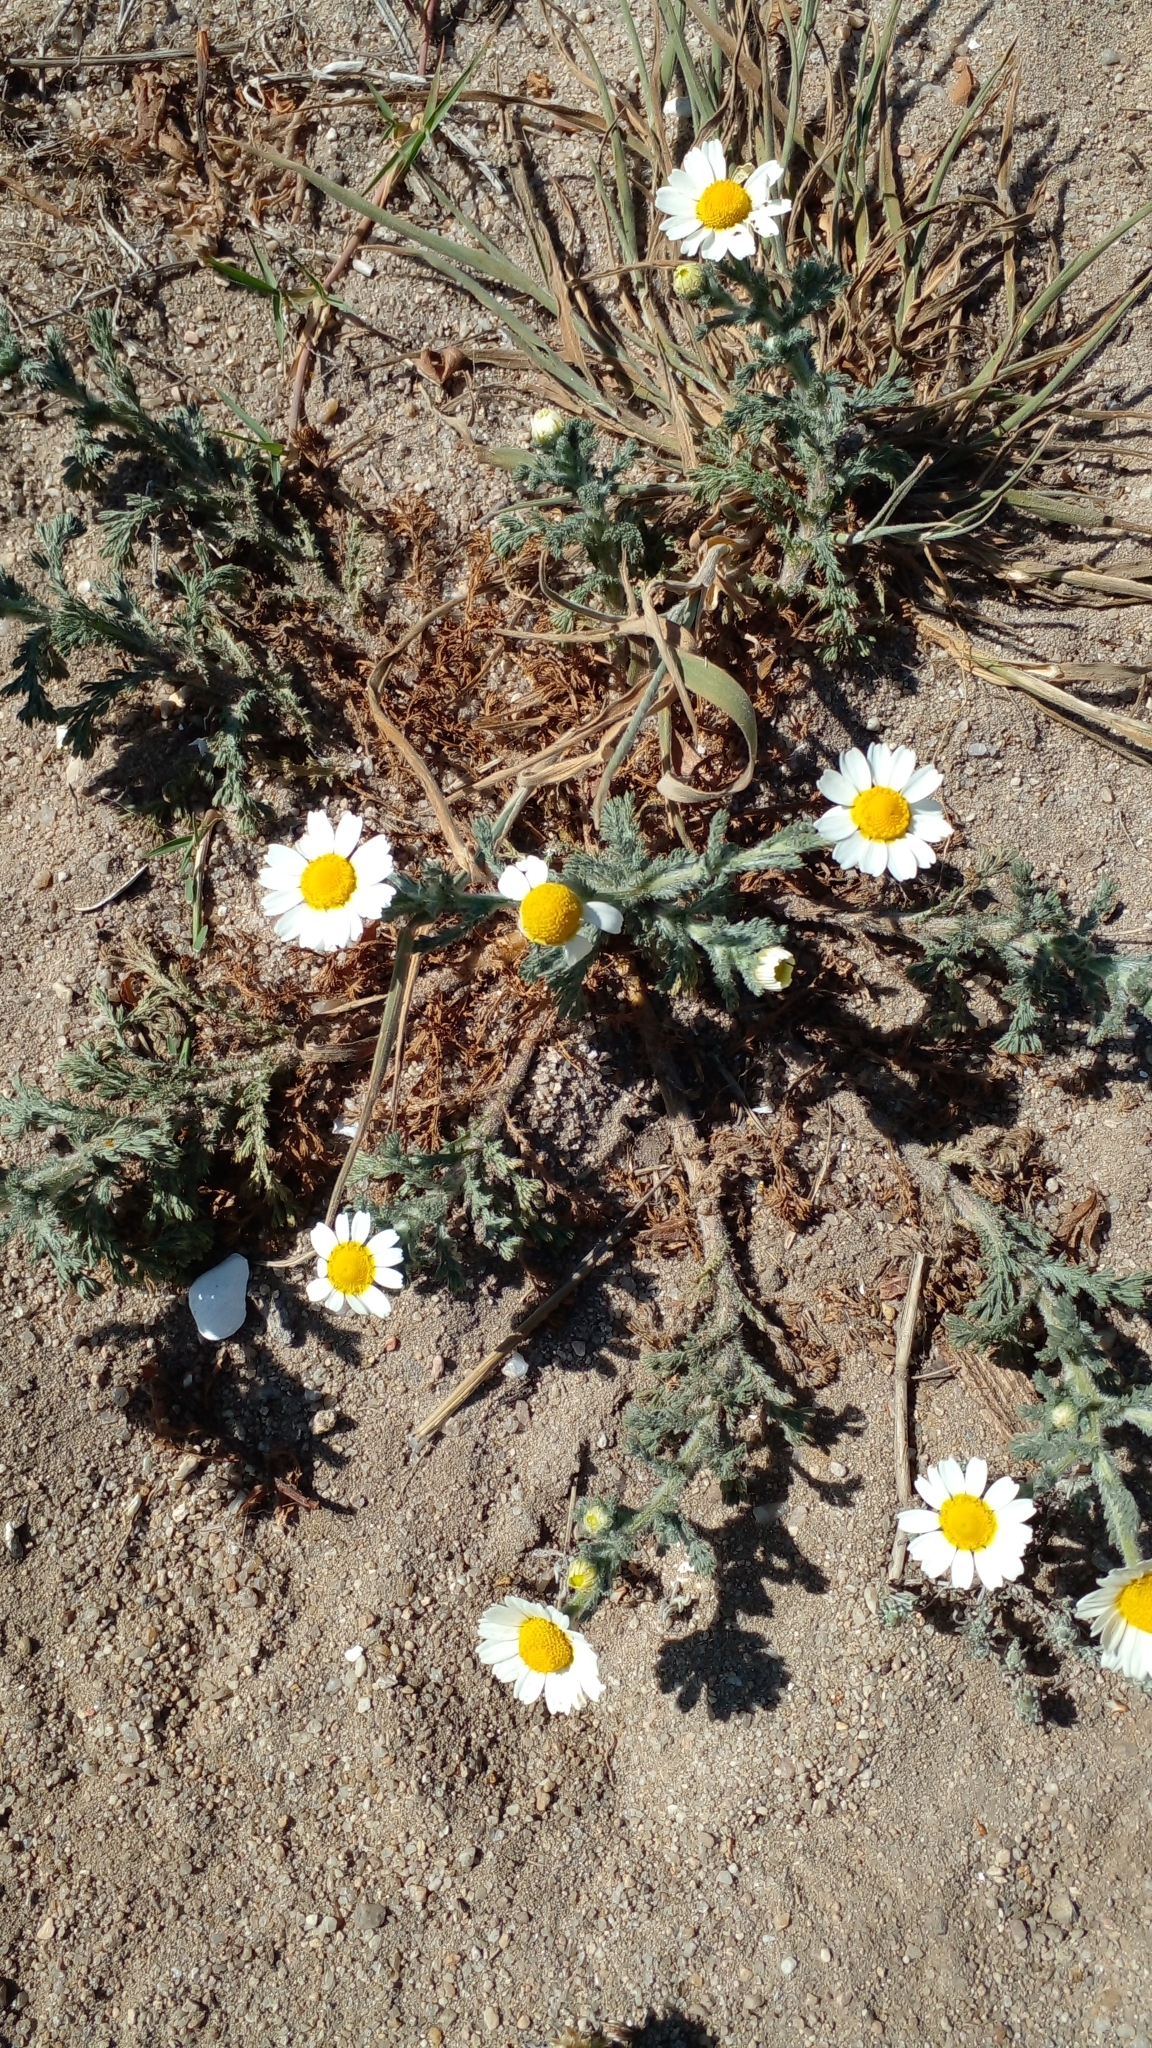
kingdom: Plantae
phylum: Tracheophyta
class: Magnoliopsida
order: Asterales
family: Asteraceae
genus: Cladanthus
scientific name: Cladanthus mixtus
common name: Weedy dogfennel
